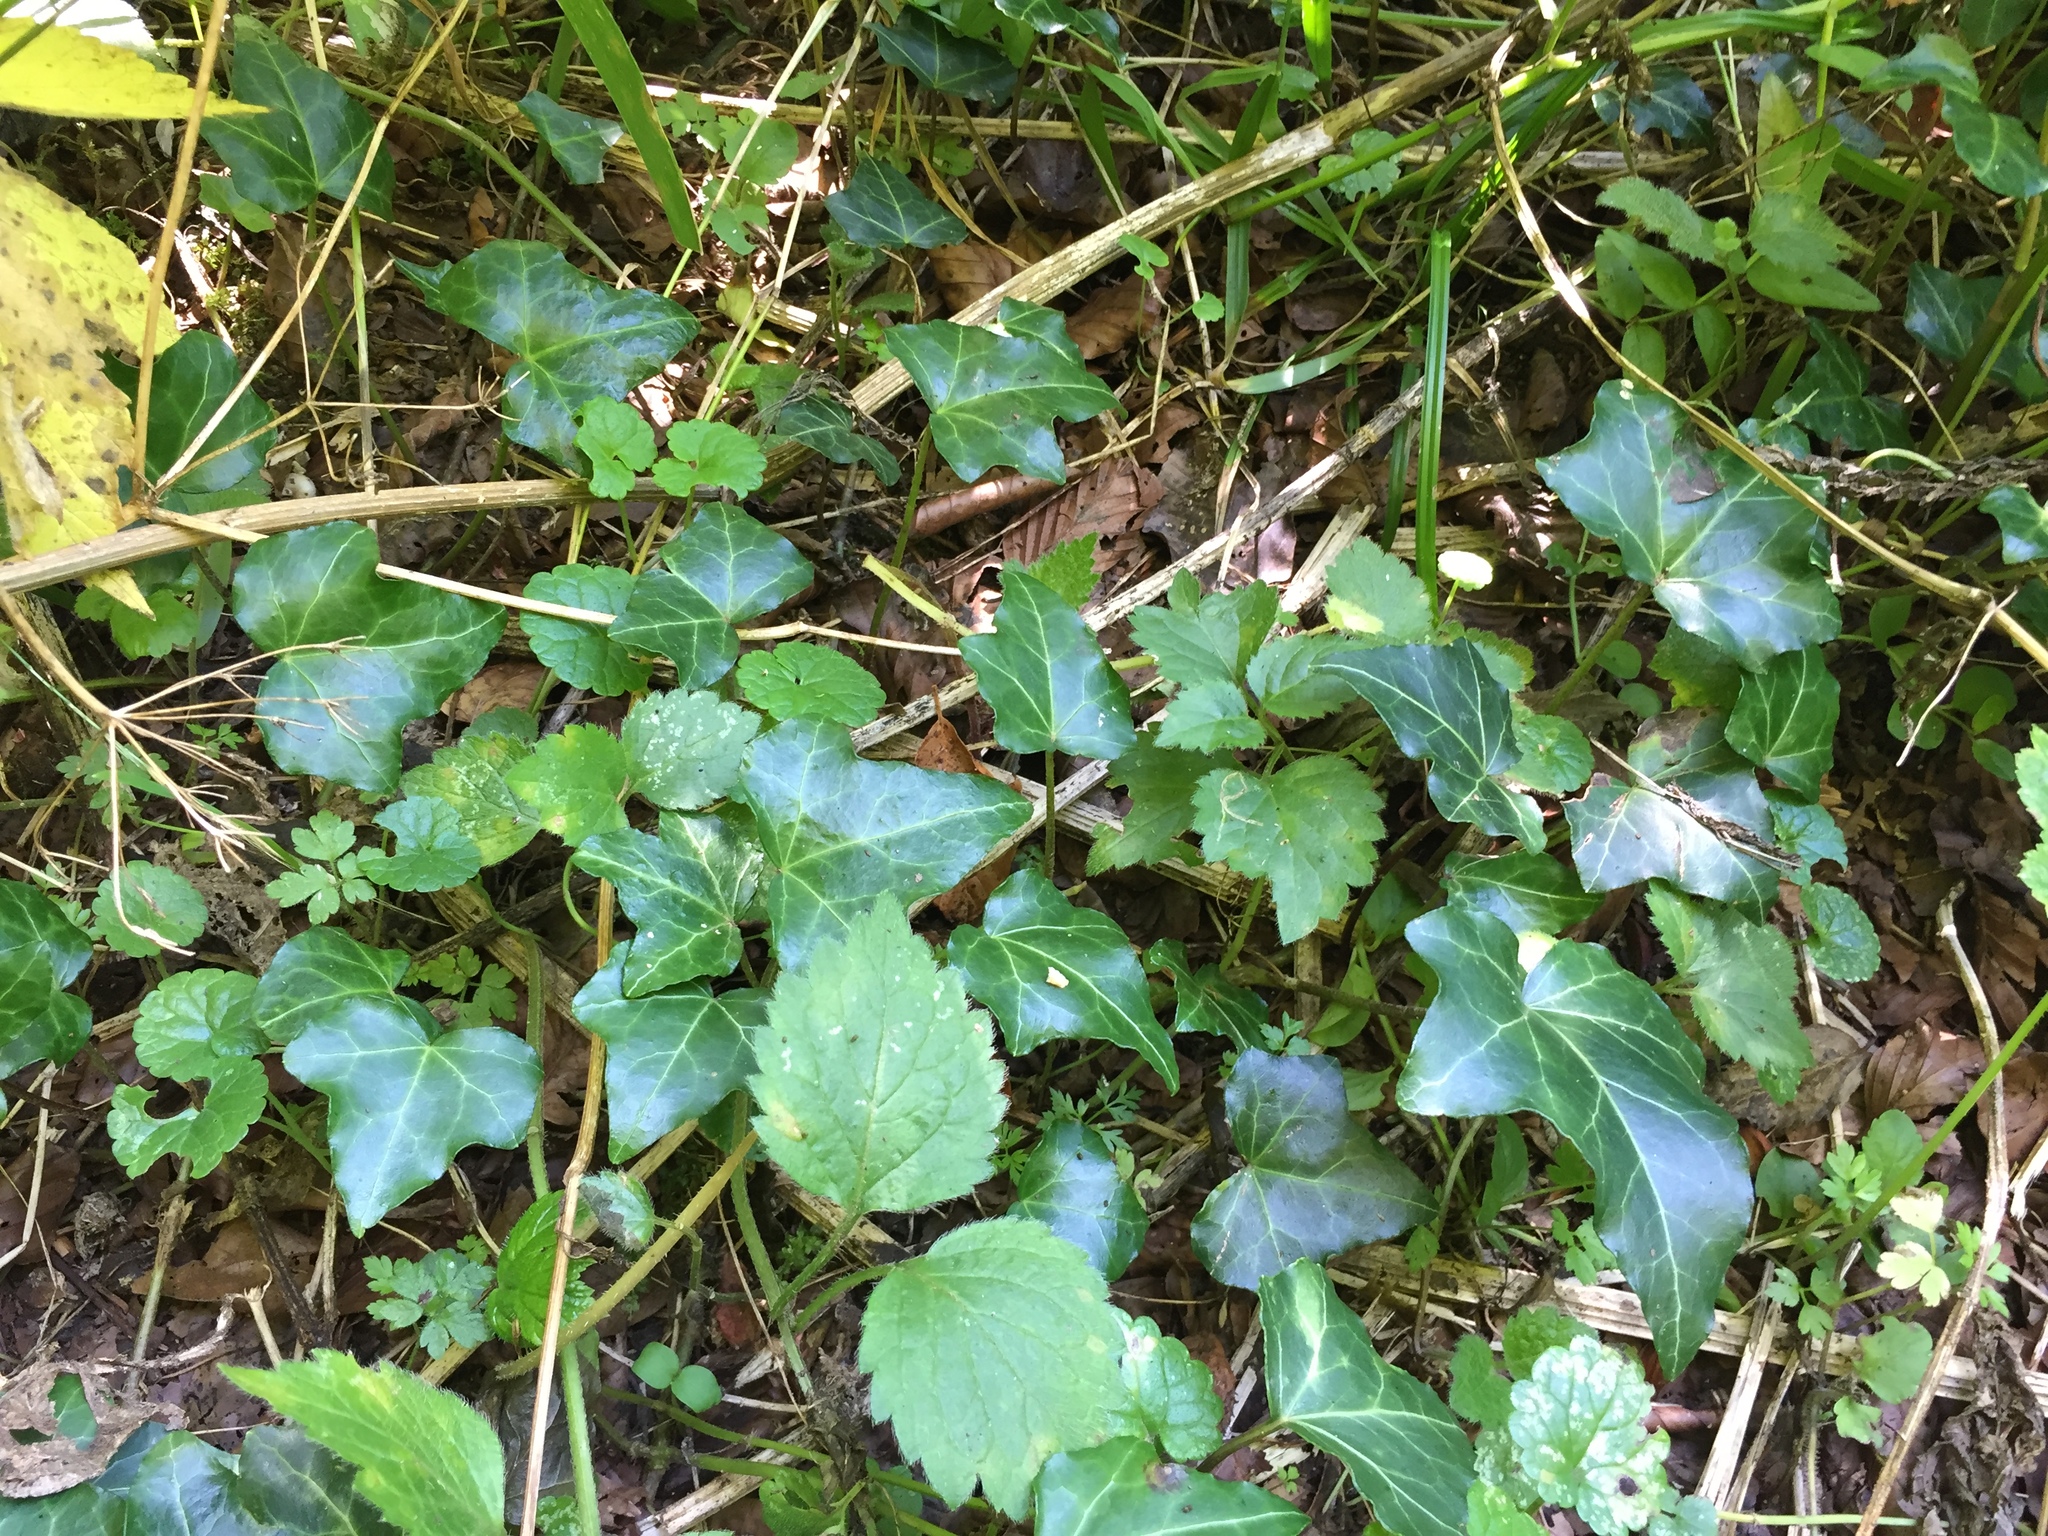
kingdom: Plantae
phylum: Tracheophyta
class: Magnoliopsida
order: Apiales
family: Araliaceae
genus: Hedera
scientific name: Hedera helix
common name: Ivy
